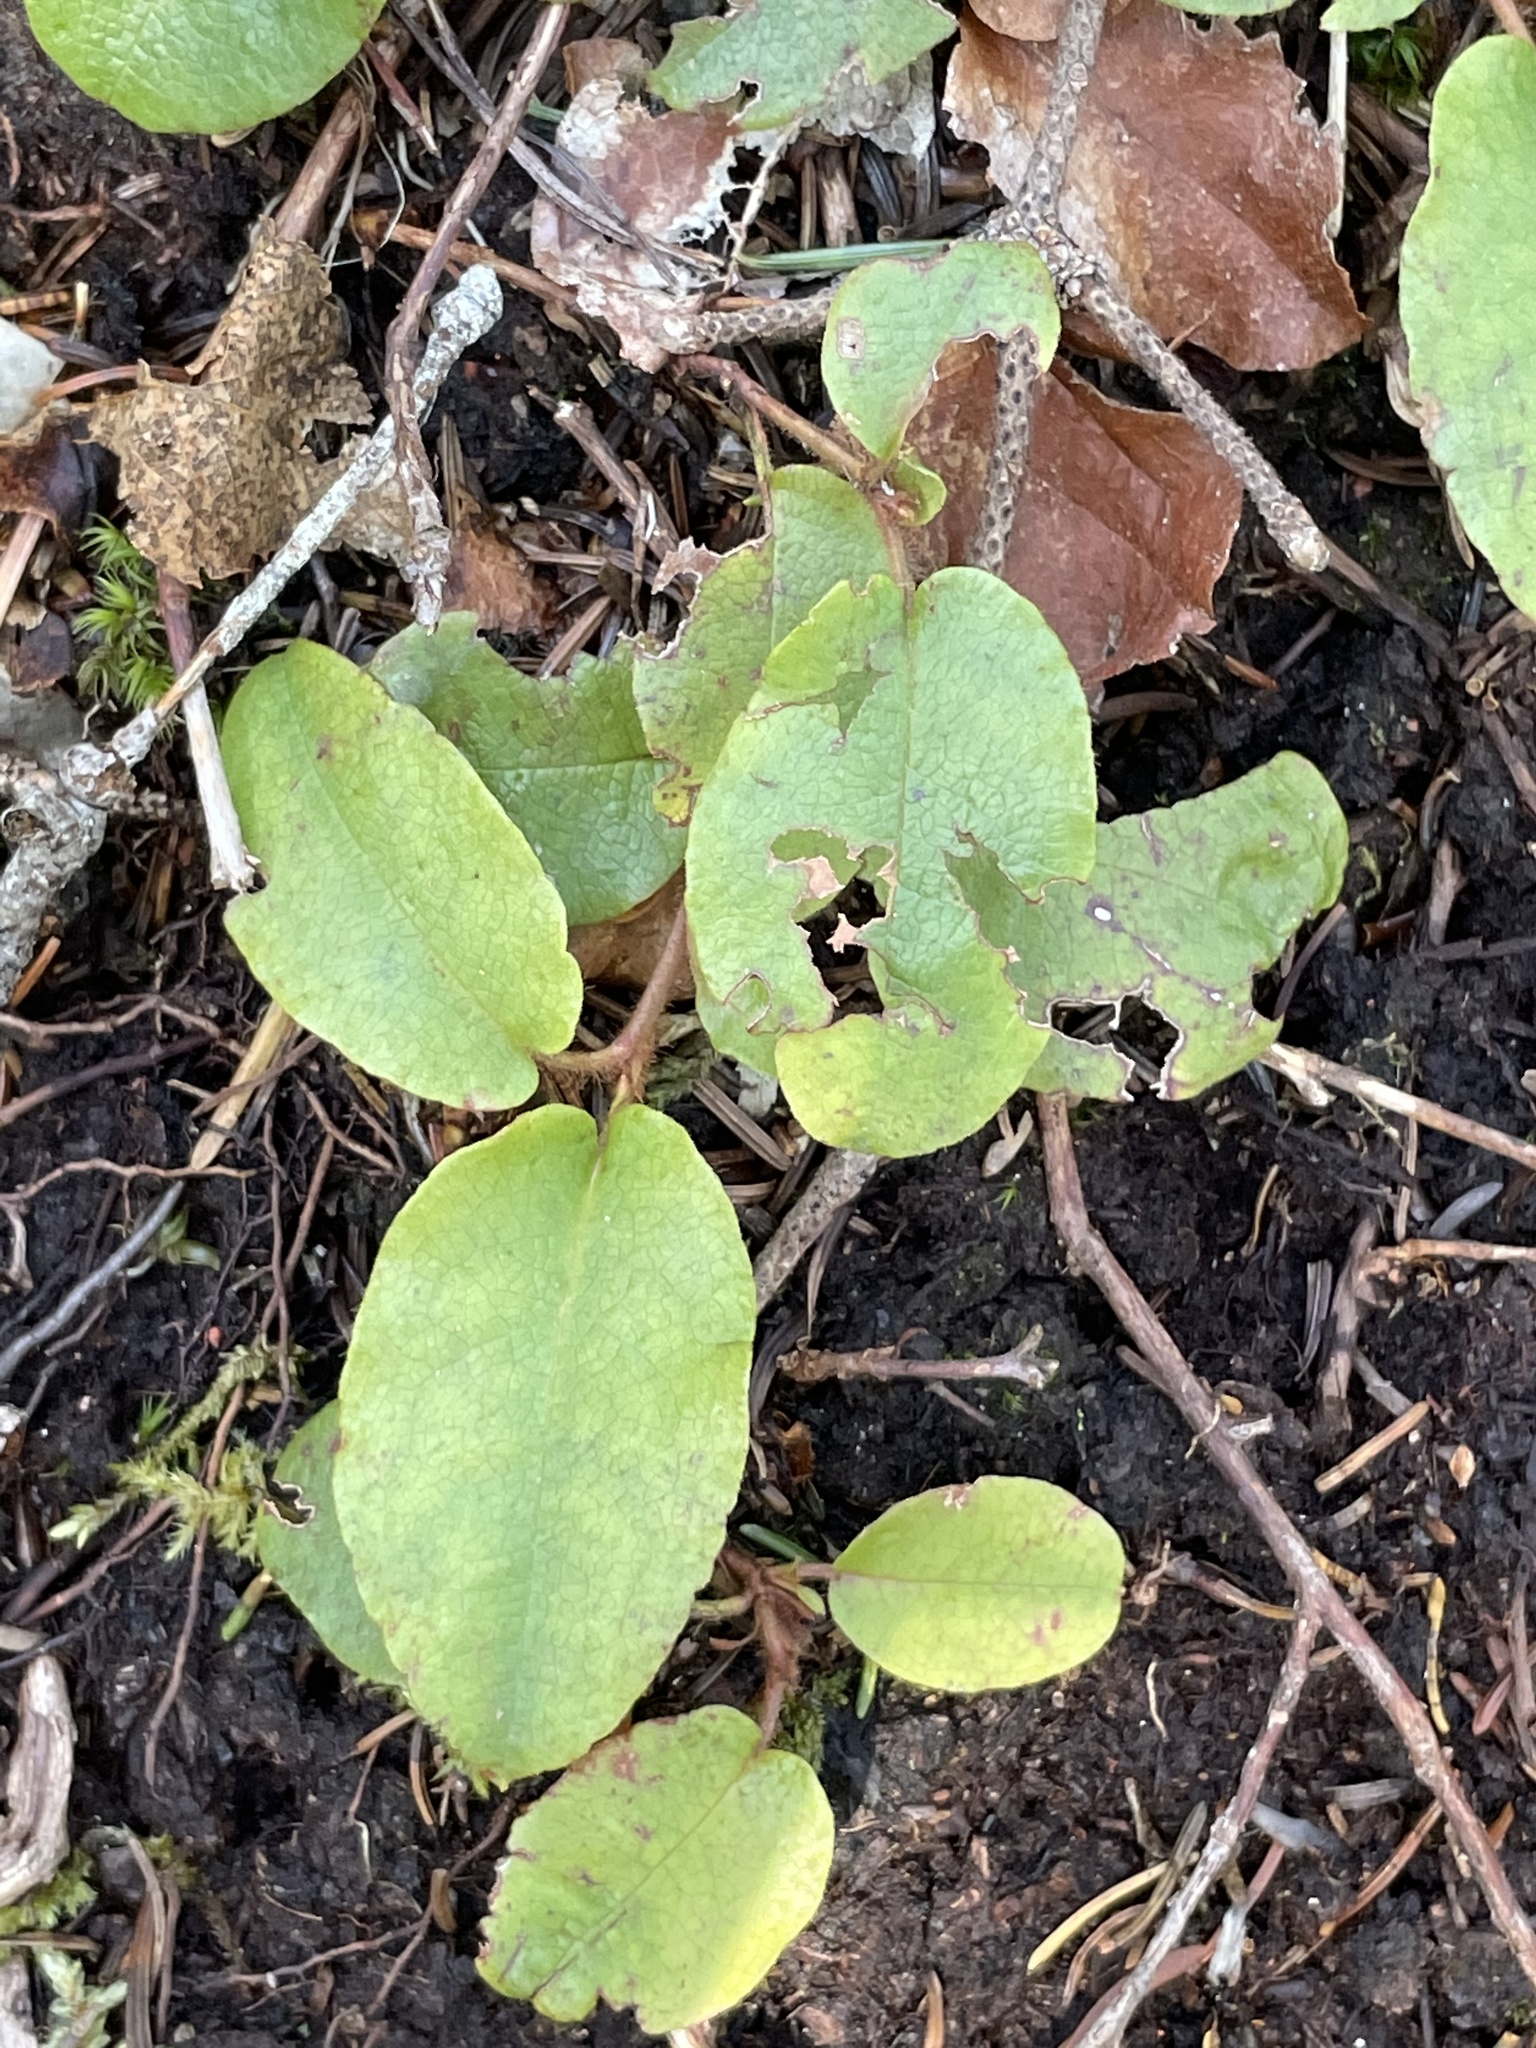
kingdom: Plantae
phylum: Tracheophyta
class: Magnoliopsida
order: Ericales
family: Ericaceae
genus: Epigaea
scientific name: Epigaea repens
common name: Gravelroot
